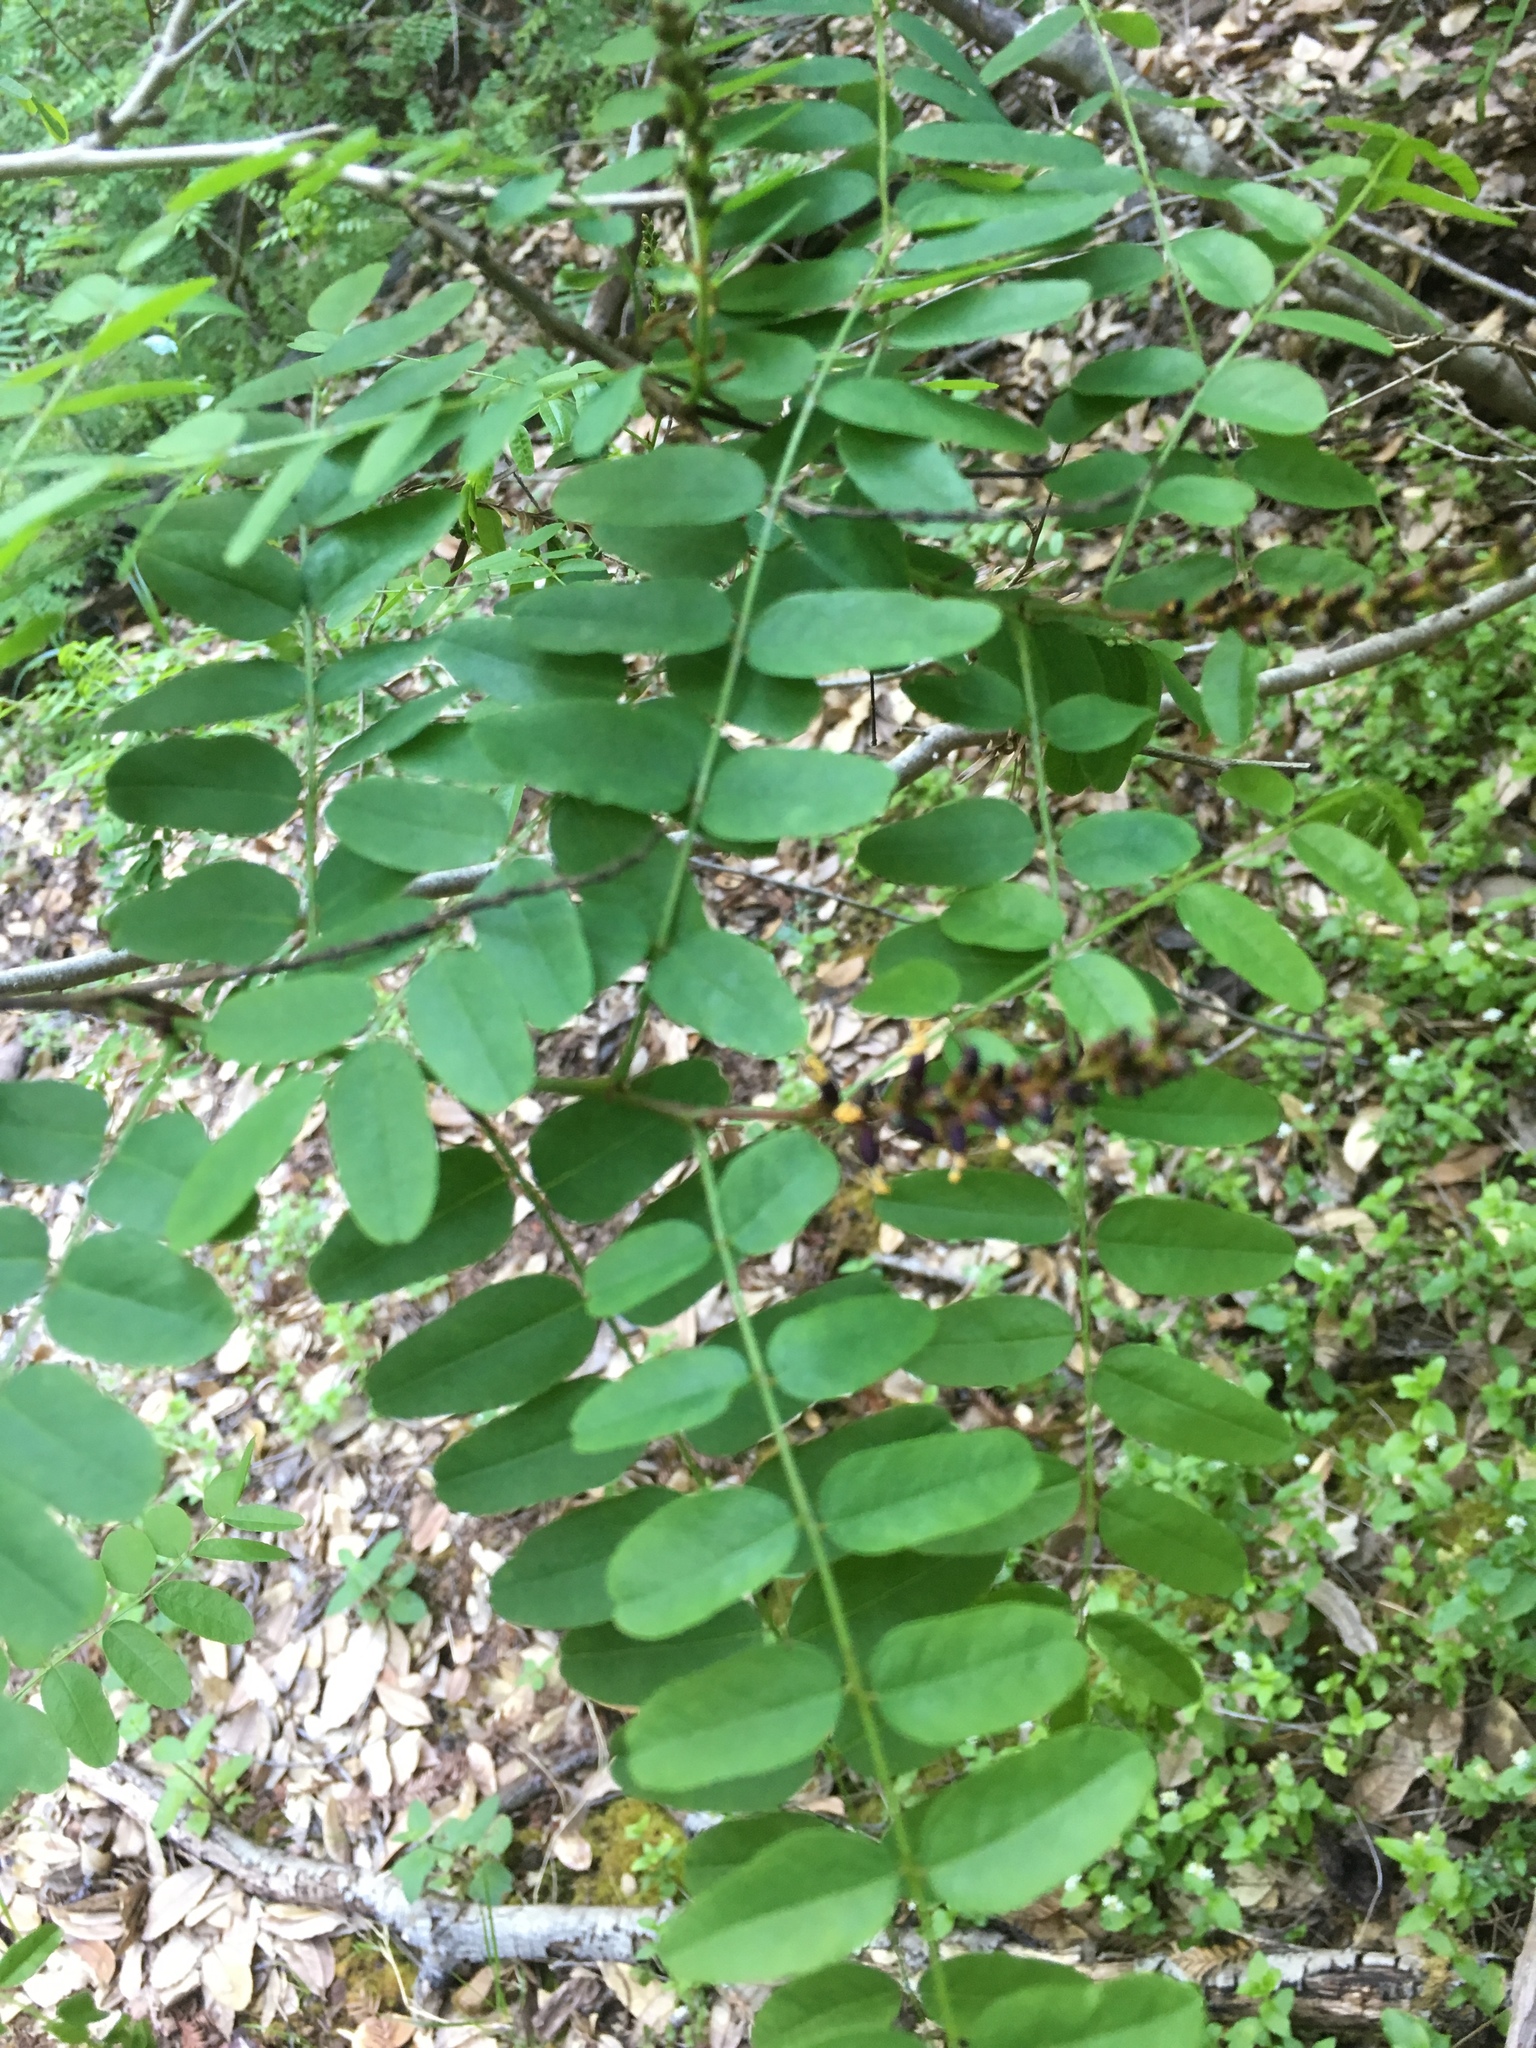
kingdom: Plantae
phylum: Tracheophyta
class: Magnoliopsida
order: Fabales
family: Fabaceae
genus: Amorpha
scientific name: Amorpha californica
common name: California indigobush
